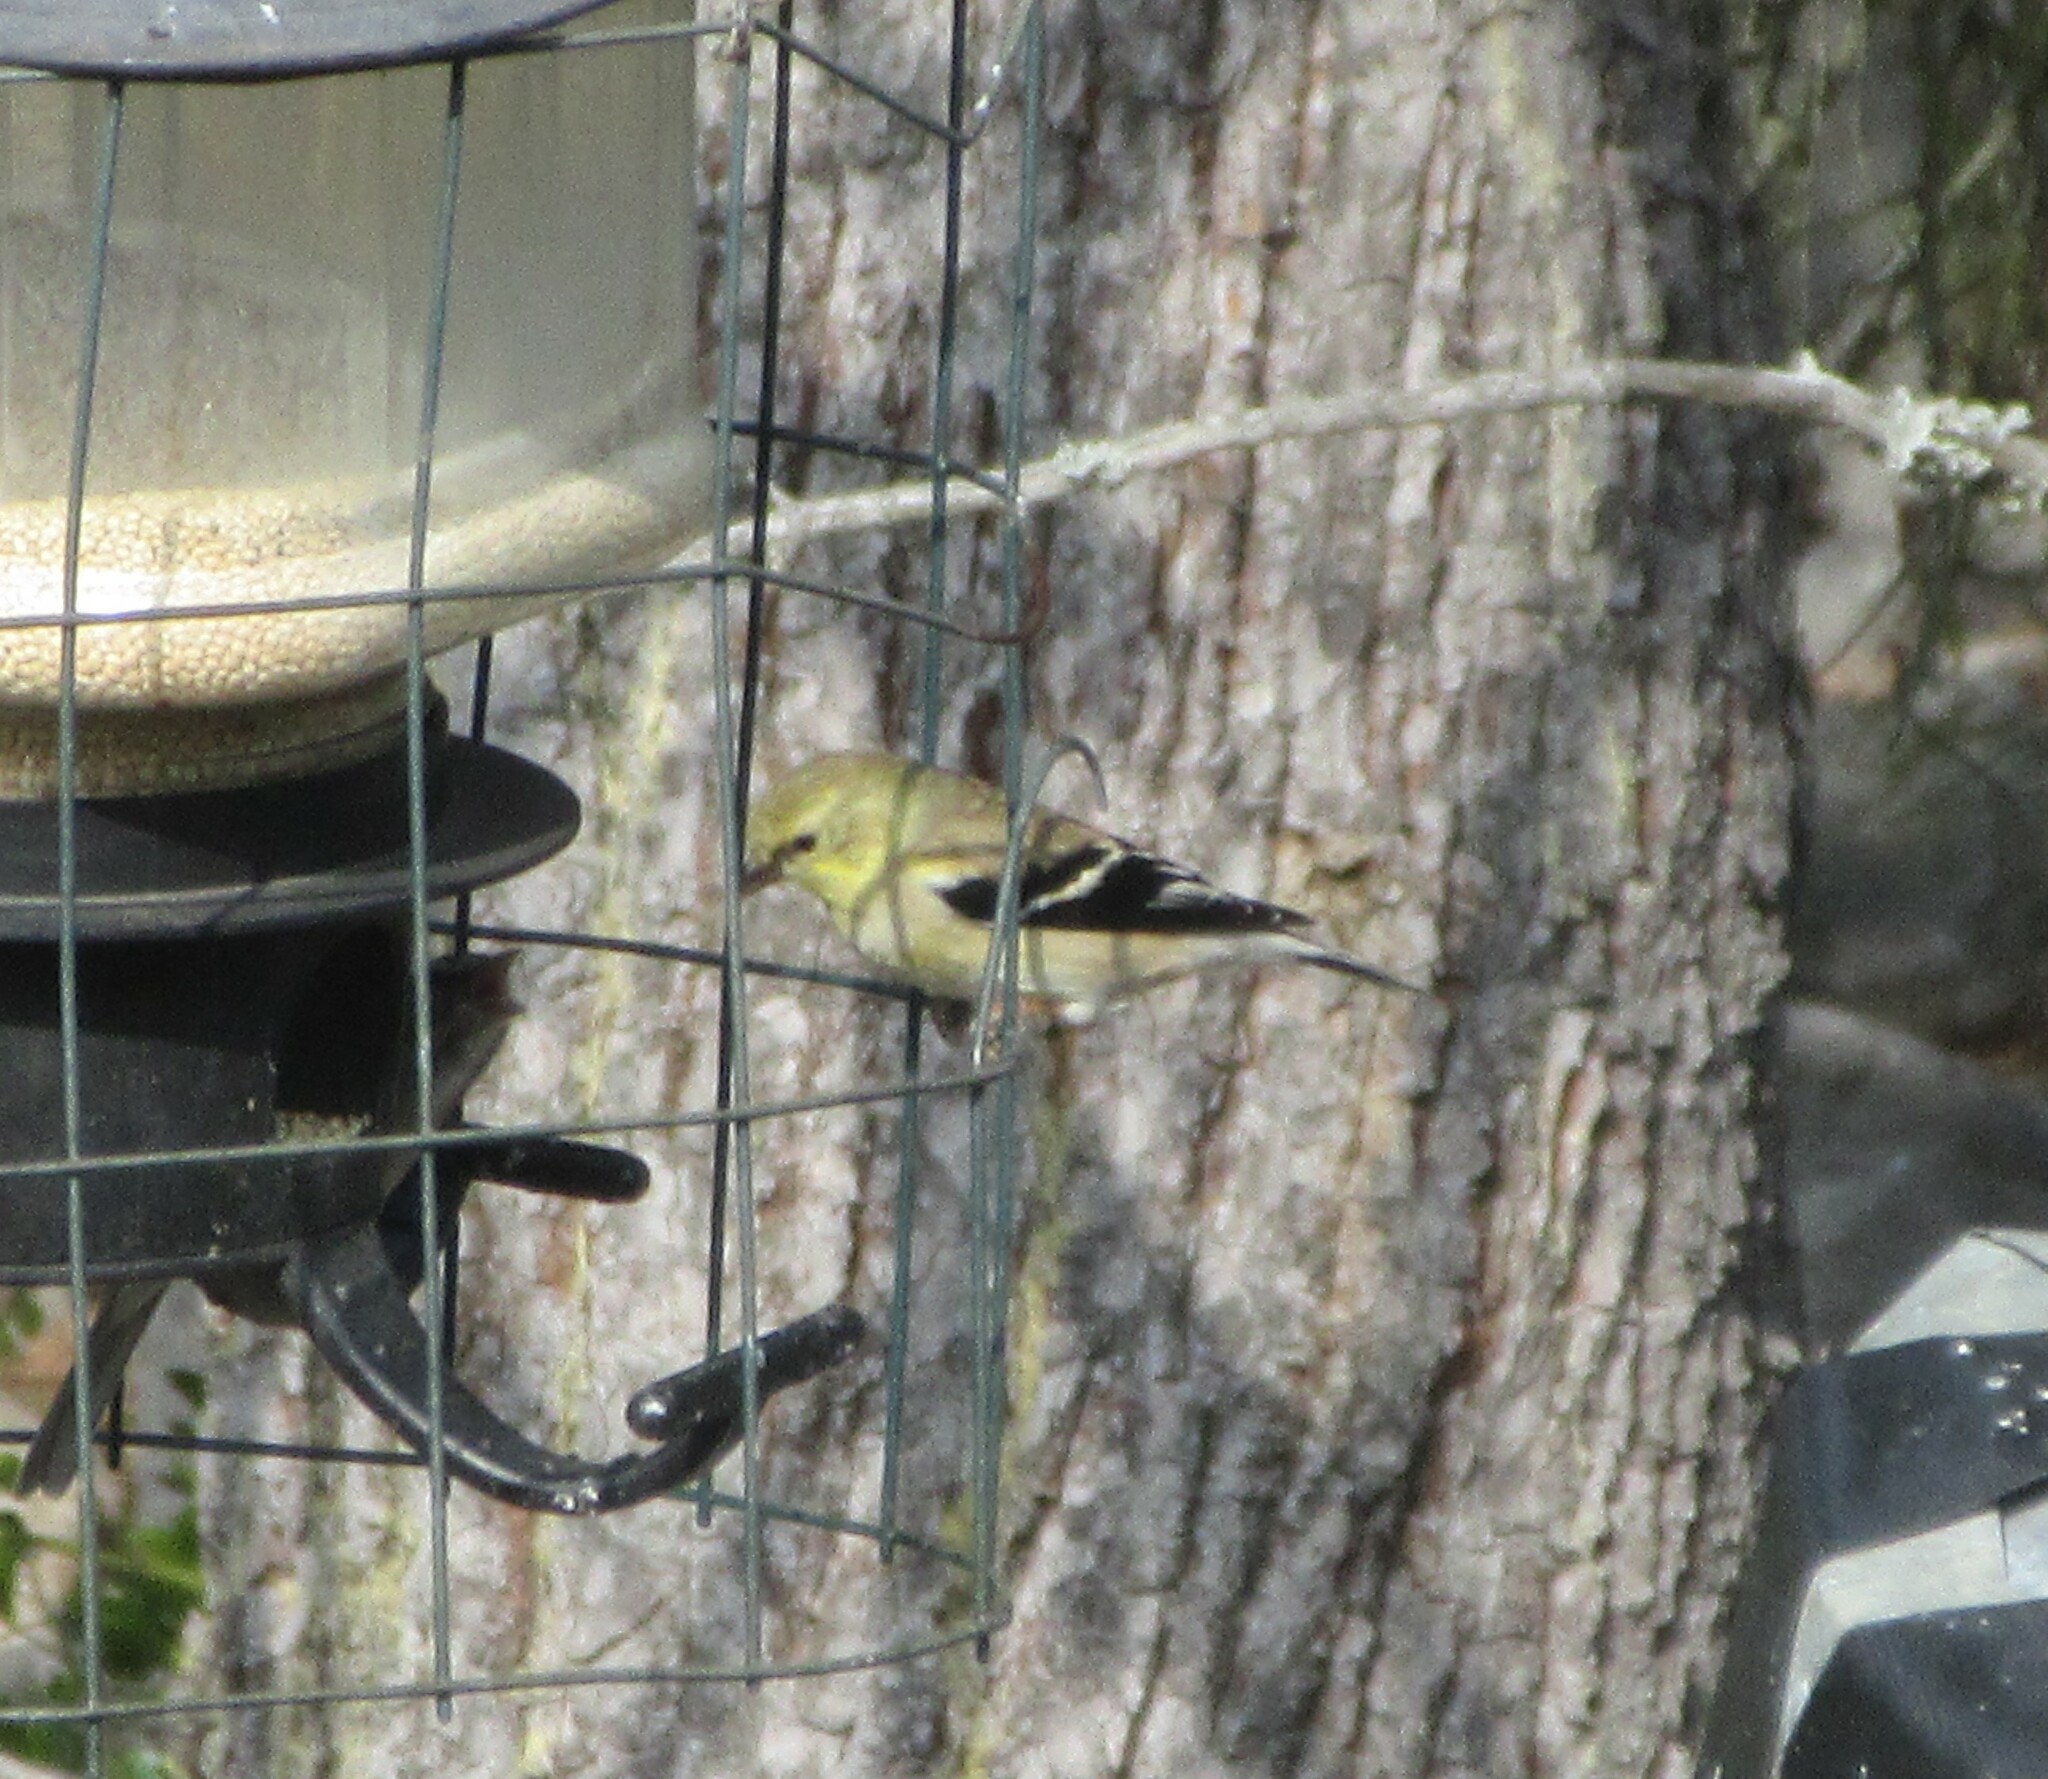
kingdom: Animalia
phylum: Chordata
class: Aves
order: Passeriformes
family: Fringillidae
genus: Spinus
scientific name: Spinus tristis
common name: American goldfinch
